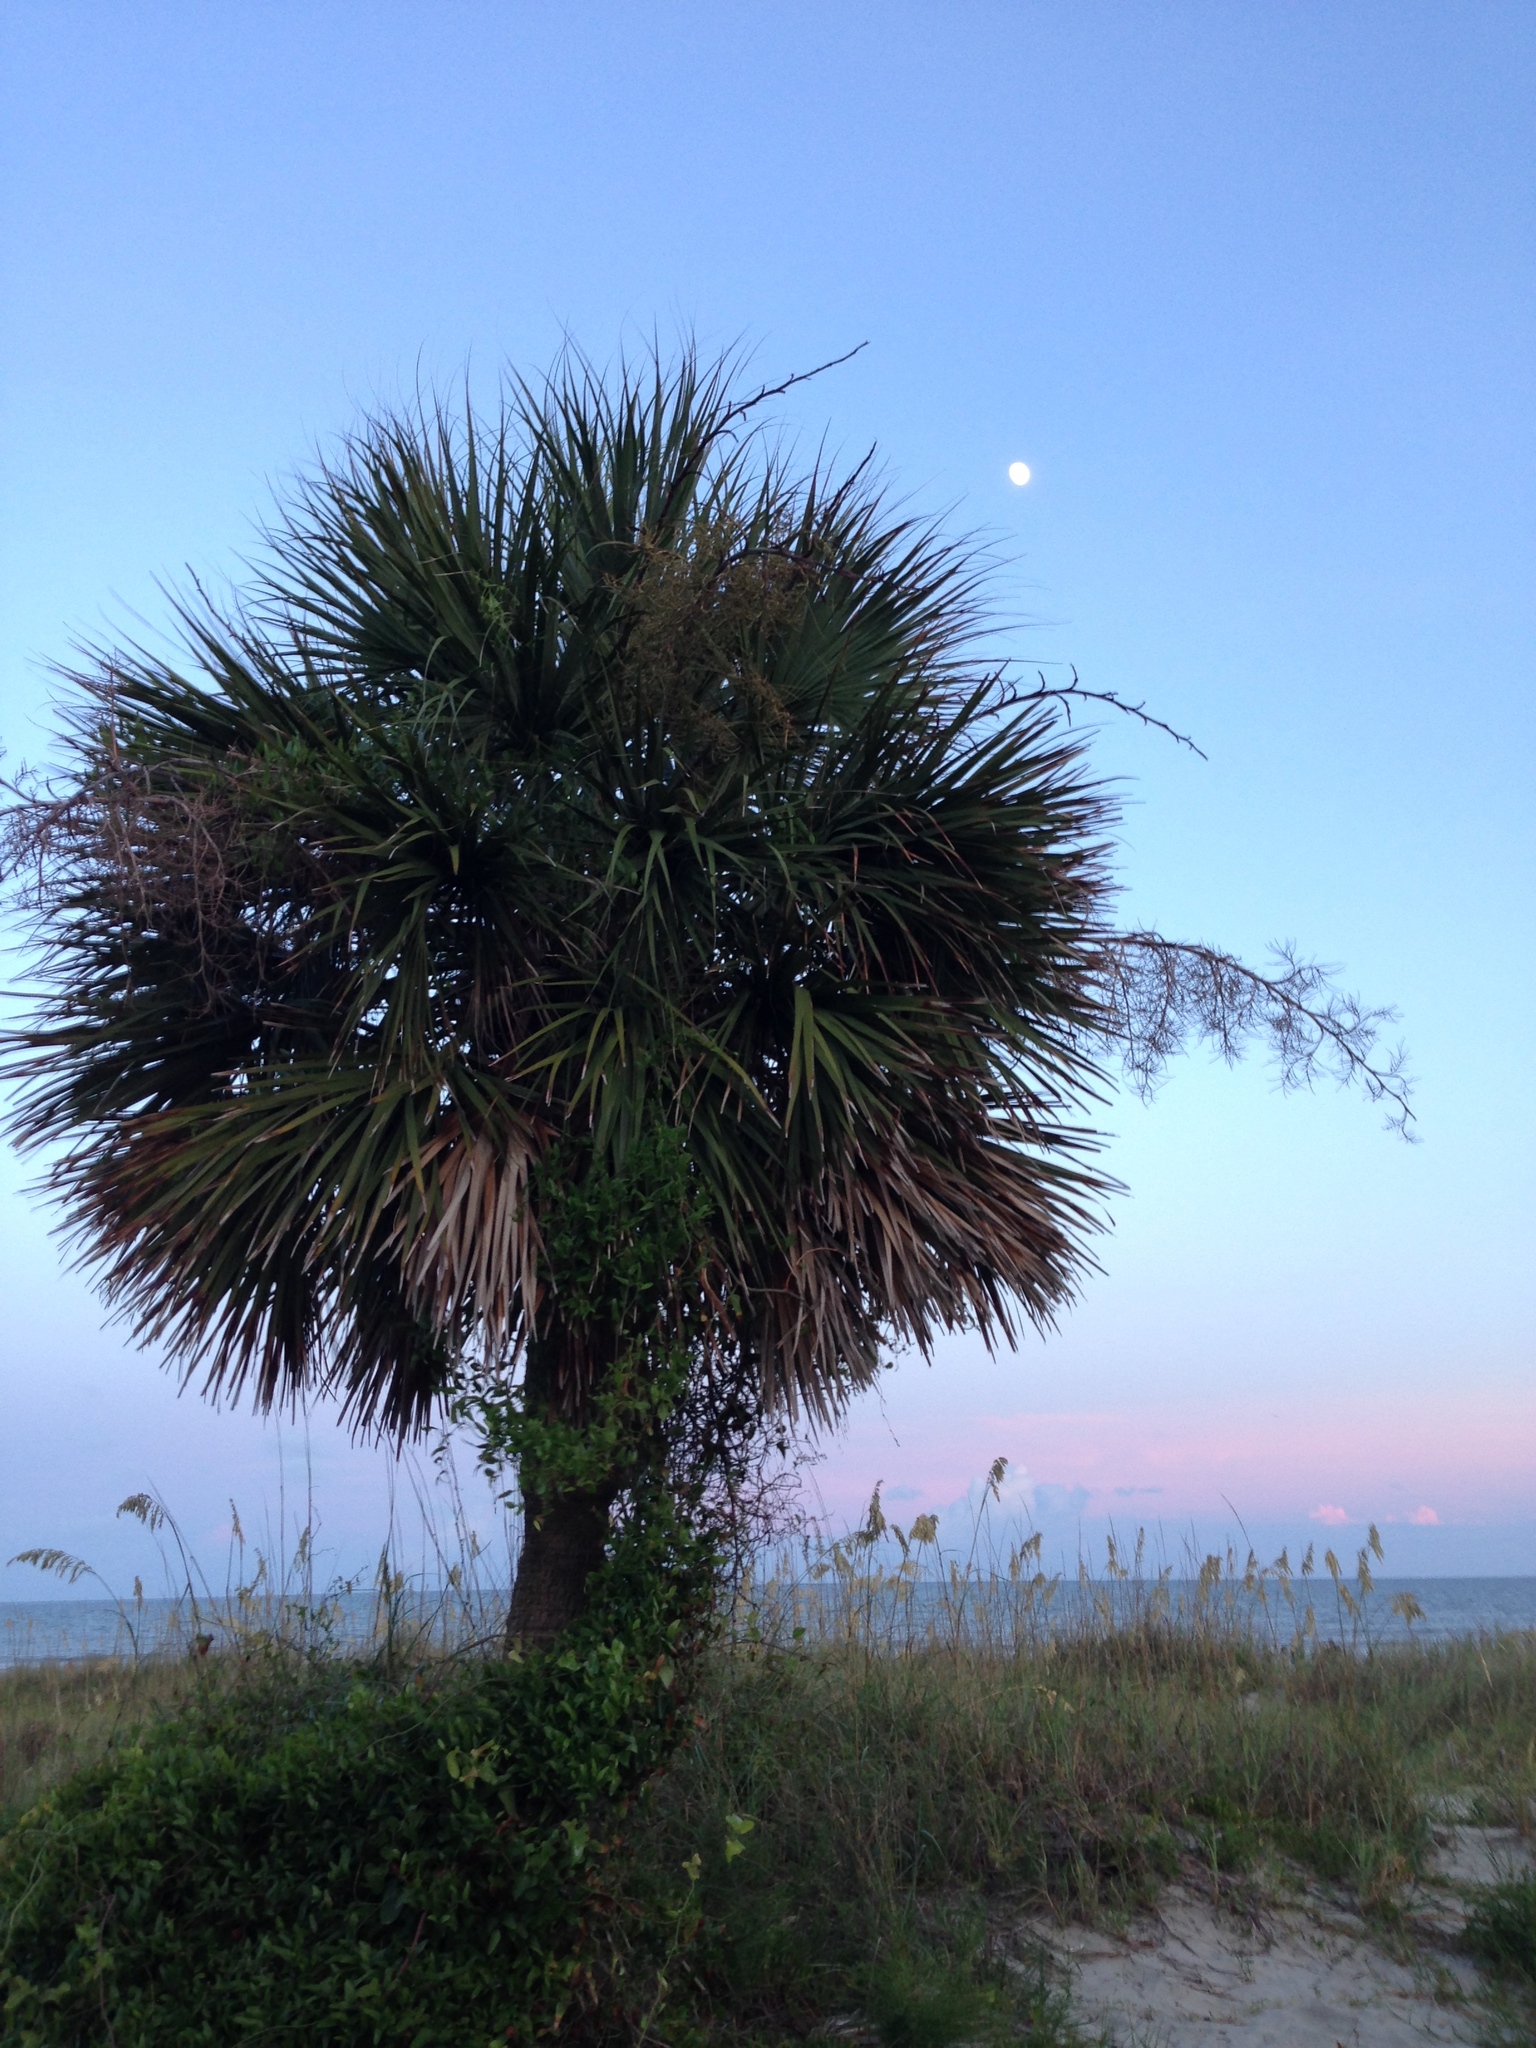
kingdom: Plantae
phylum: Tracheophyta
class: Liliopsida
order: Arecales
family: Arecaceae
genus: Sabal
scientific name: Sabal palmetto
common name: Blue palmetto
